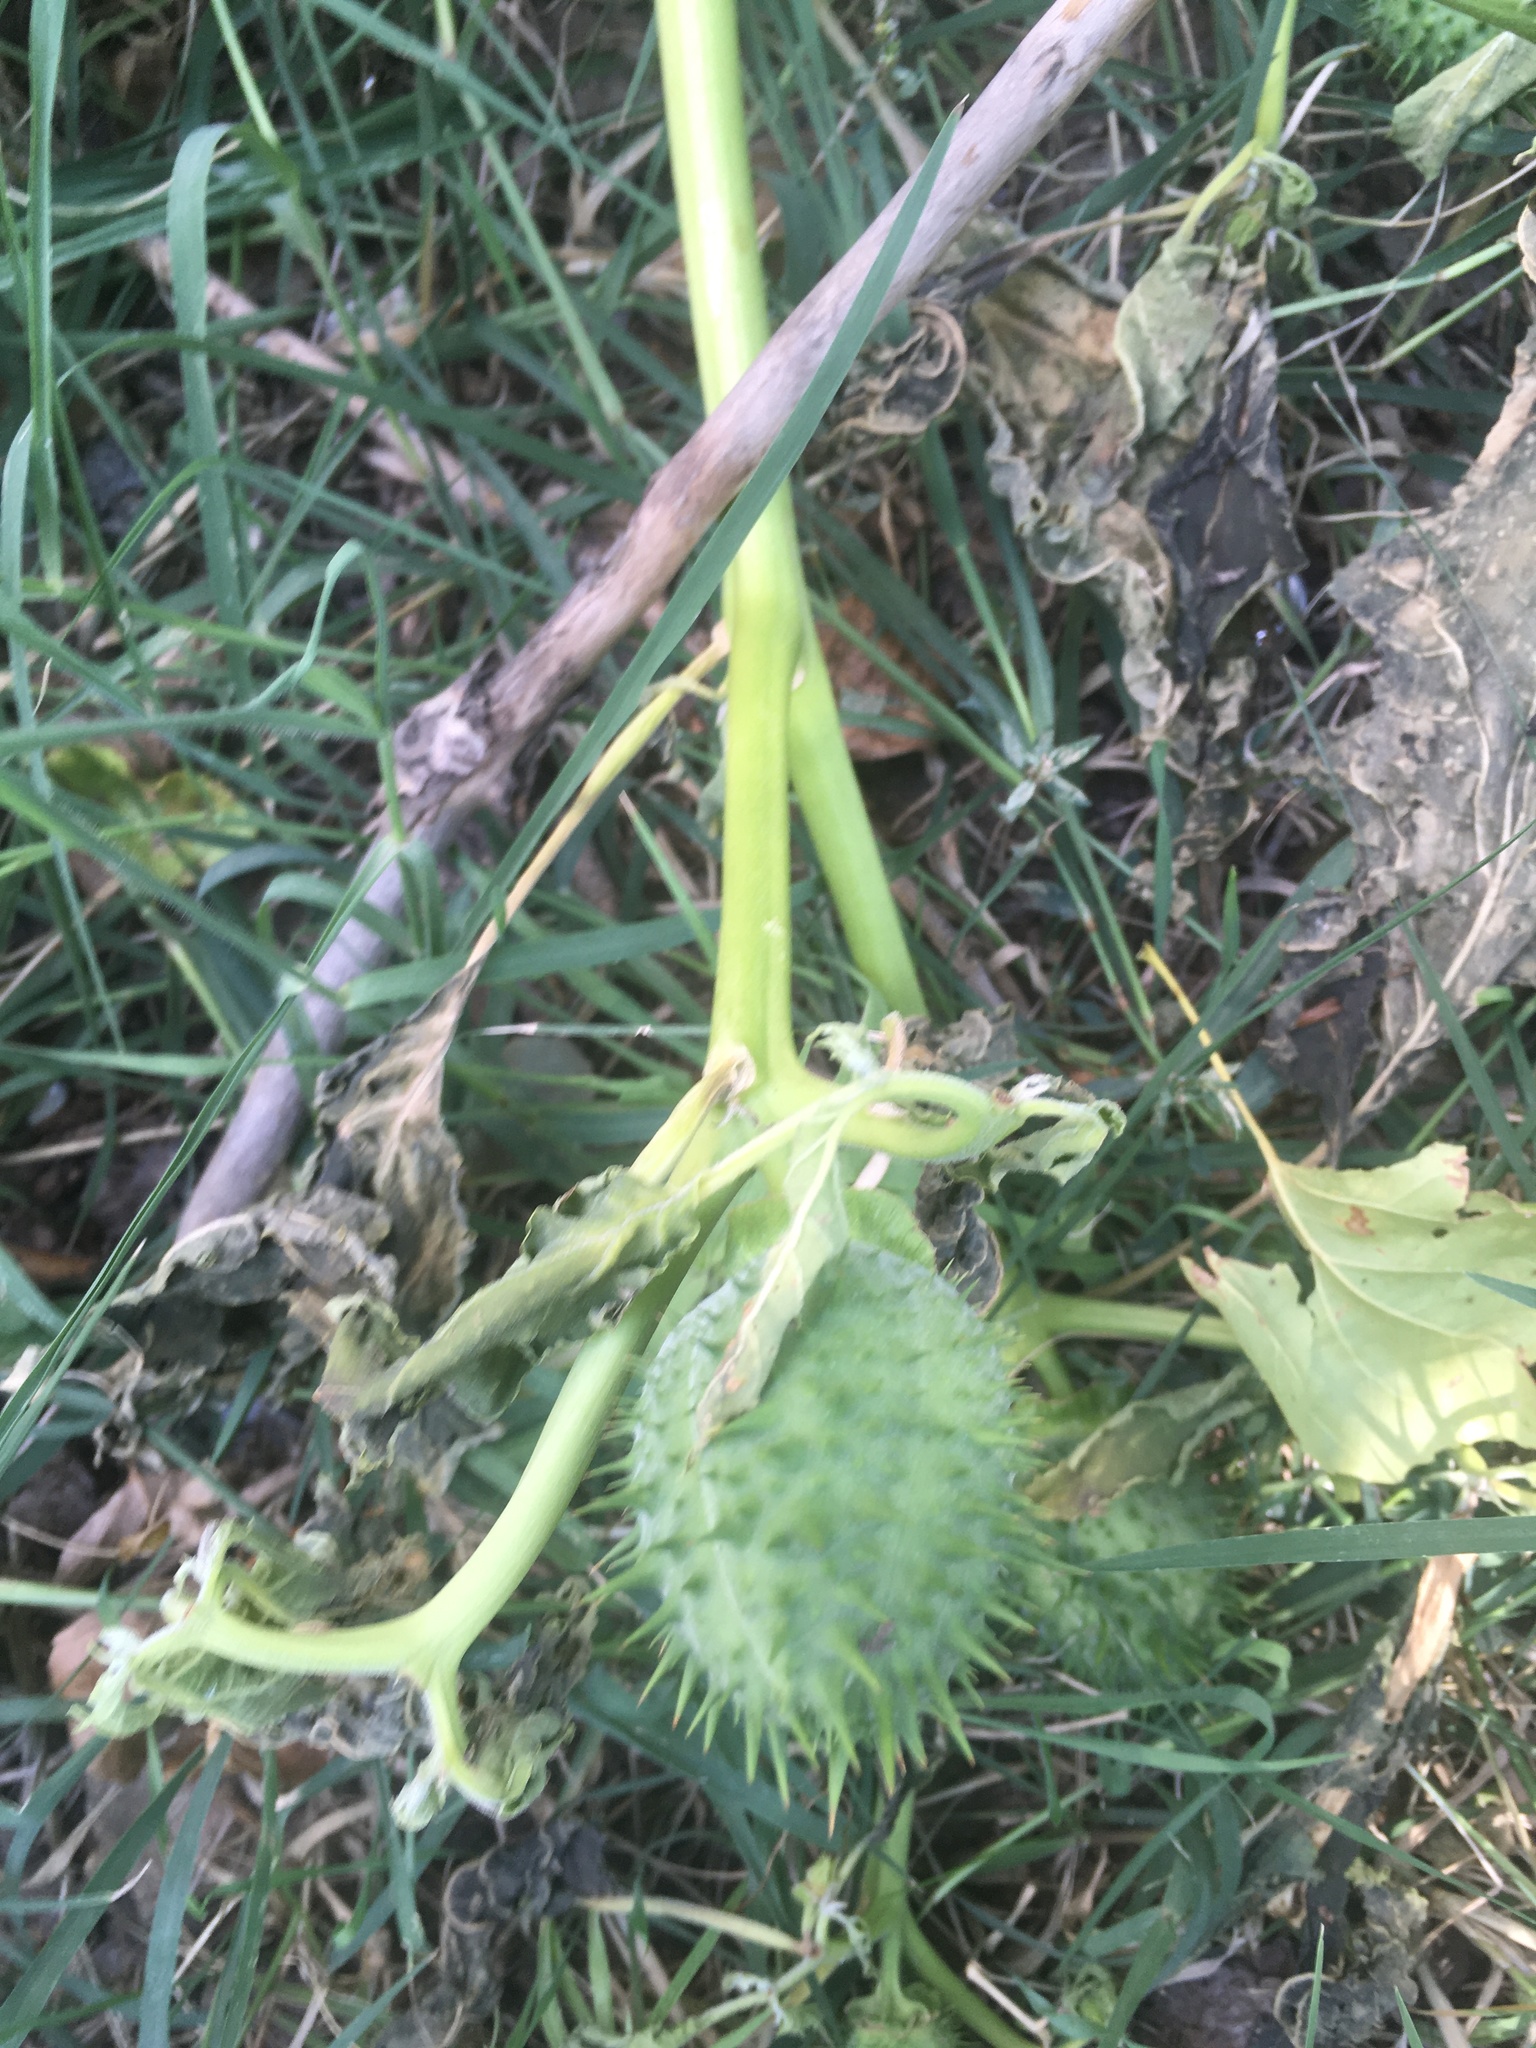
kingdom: Plantae
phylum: Tracheophyta
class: Magnoliopsida
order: Solanales
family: Solanaceae
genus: Datura
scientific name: Datura stramonium
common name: Thorn-apple
